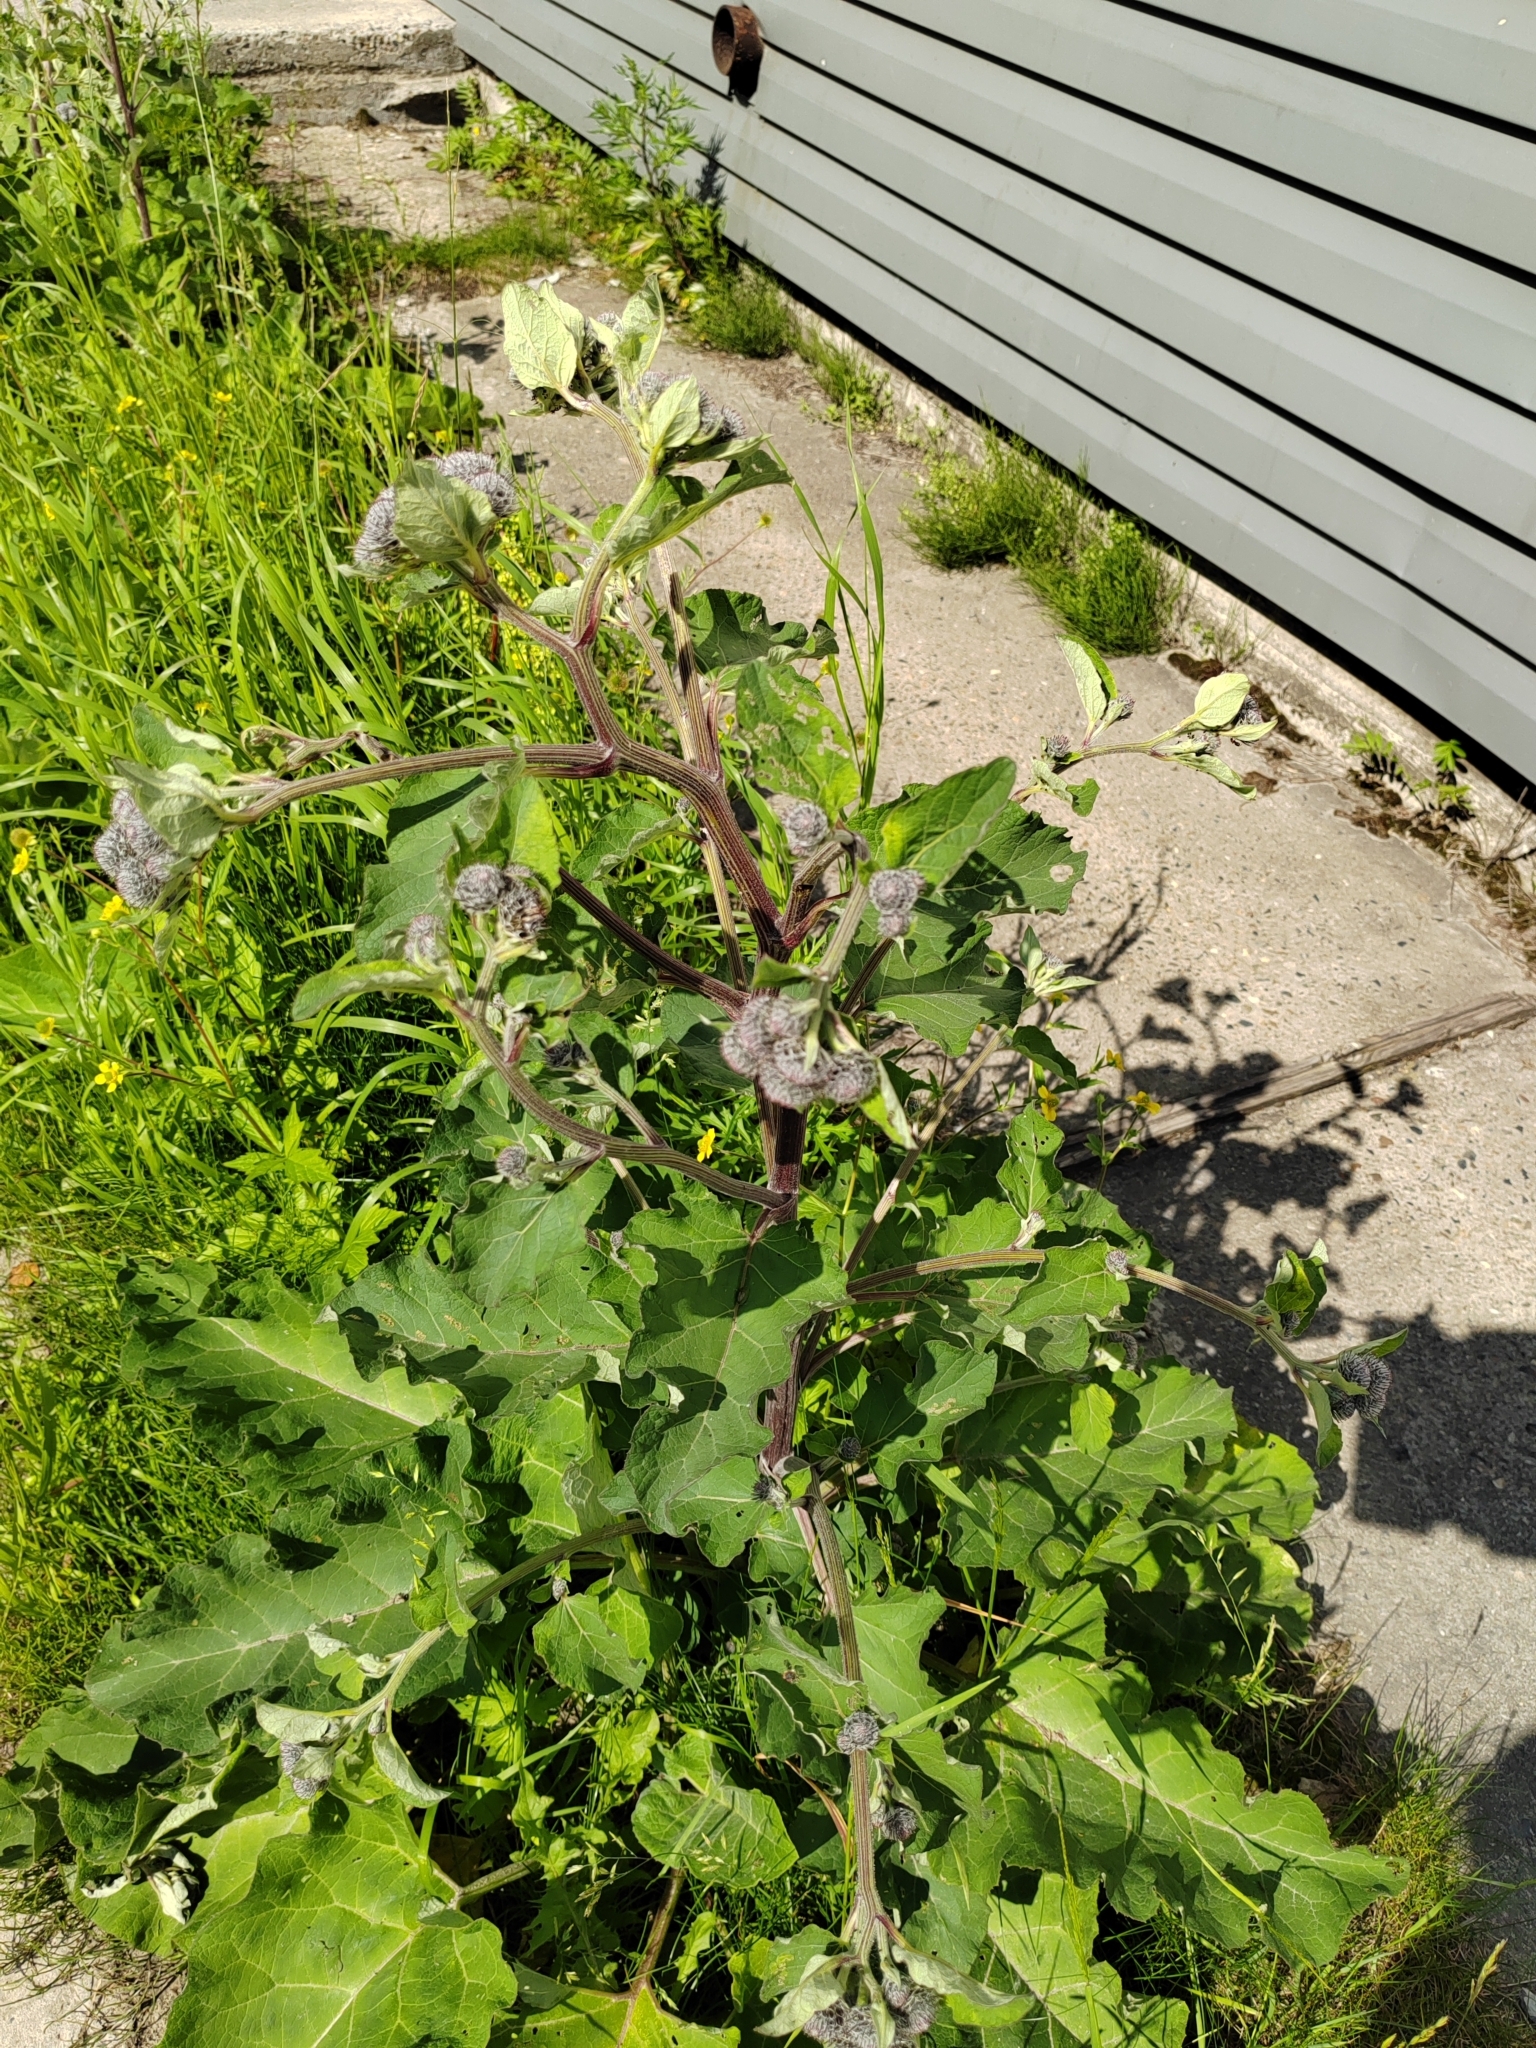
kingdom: Plantae
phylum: Tracheophyta
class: Magnoliopsida
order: Asterales
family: Asteraceae
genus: Arctium
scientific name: Arctium tomentosum
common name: Woolly burdock
